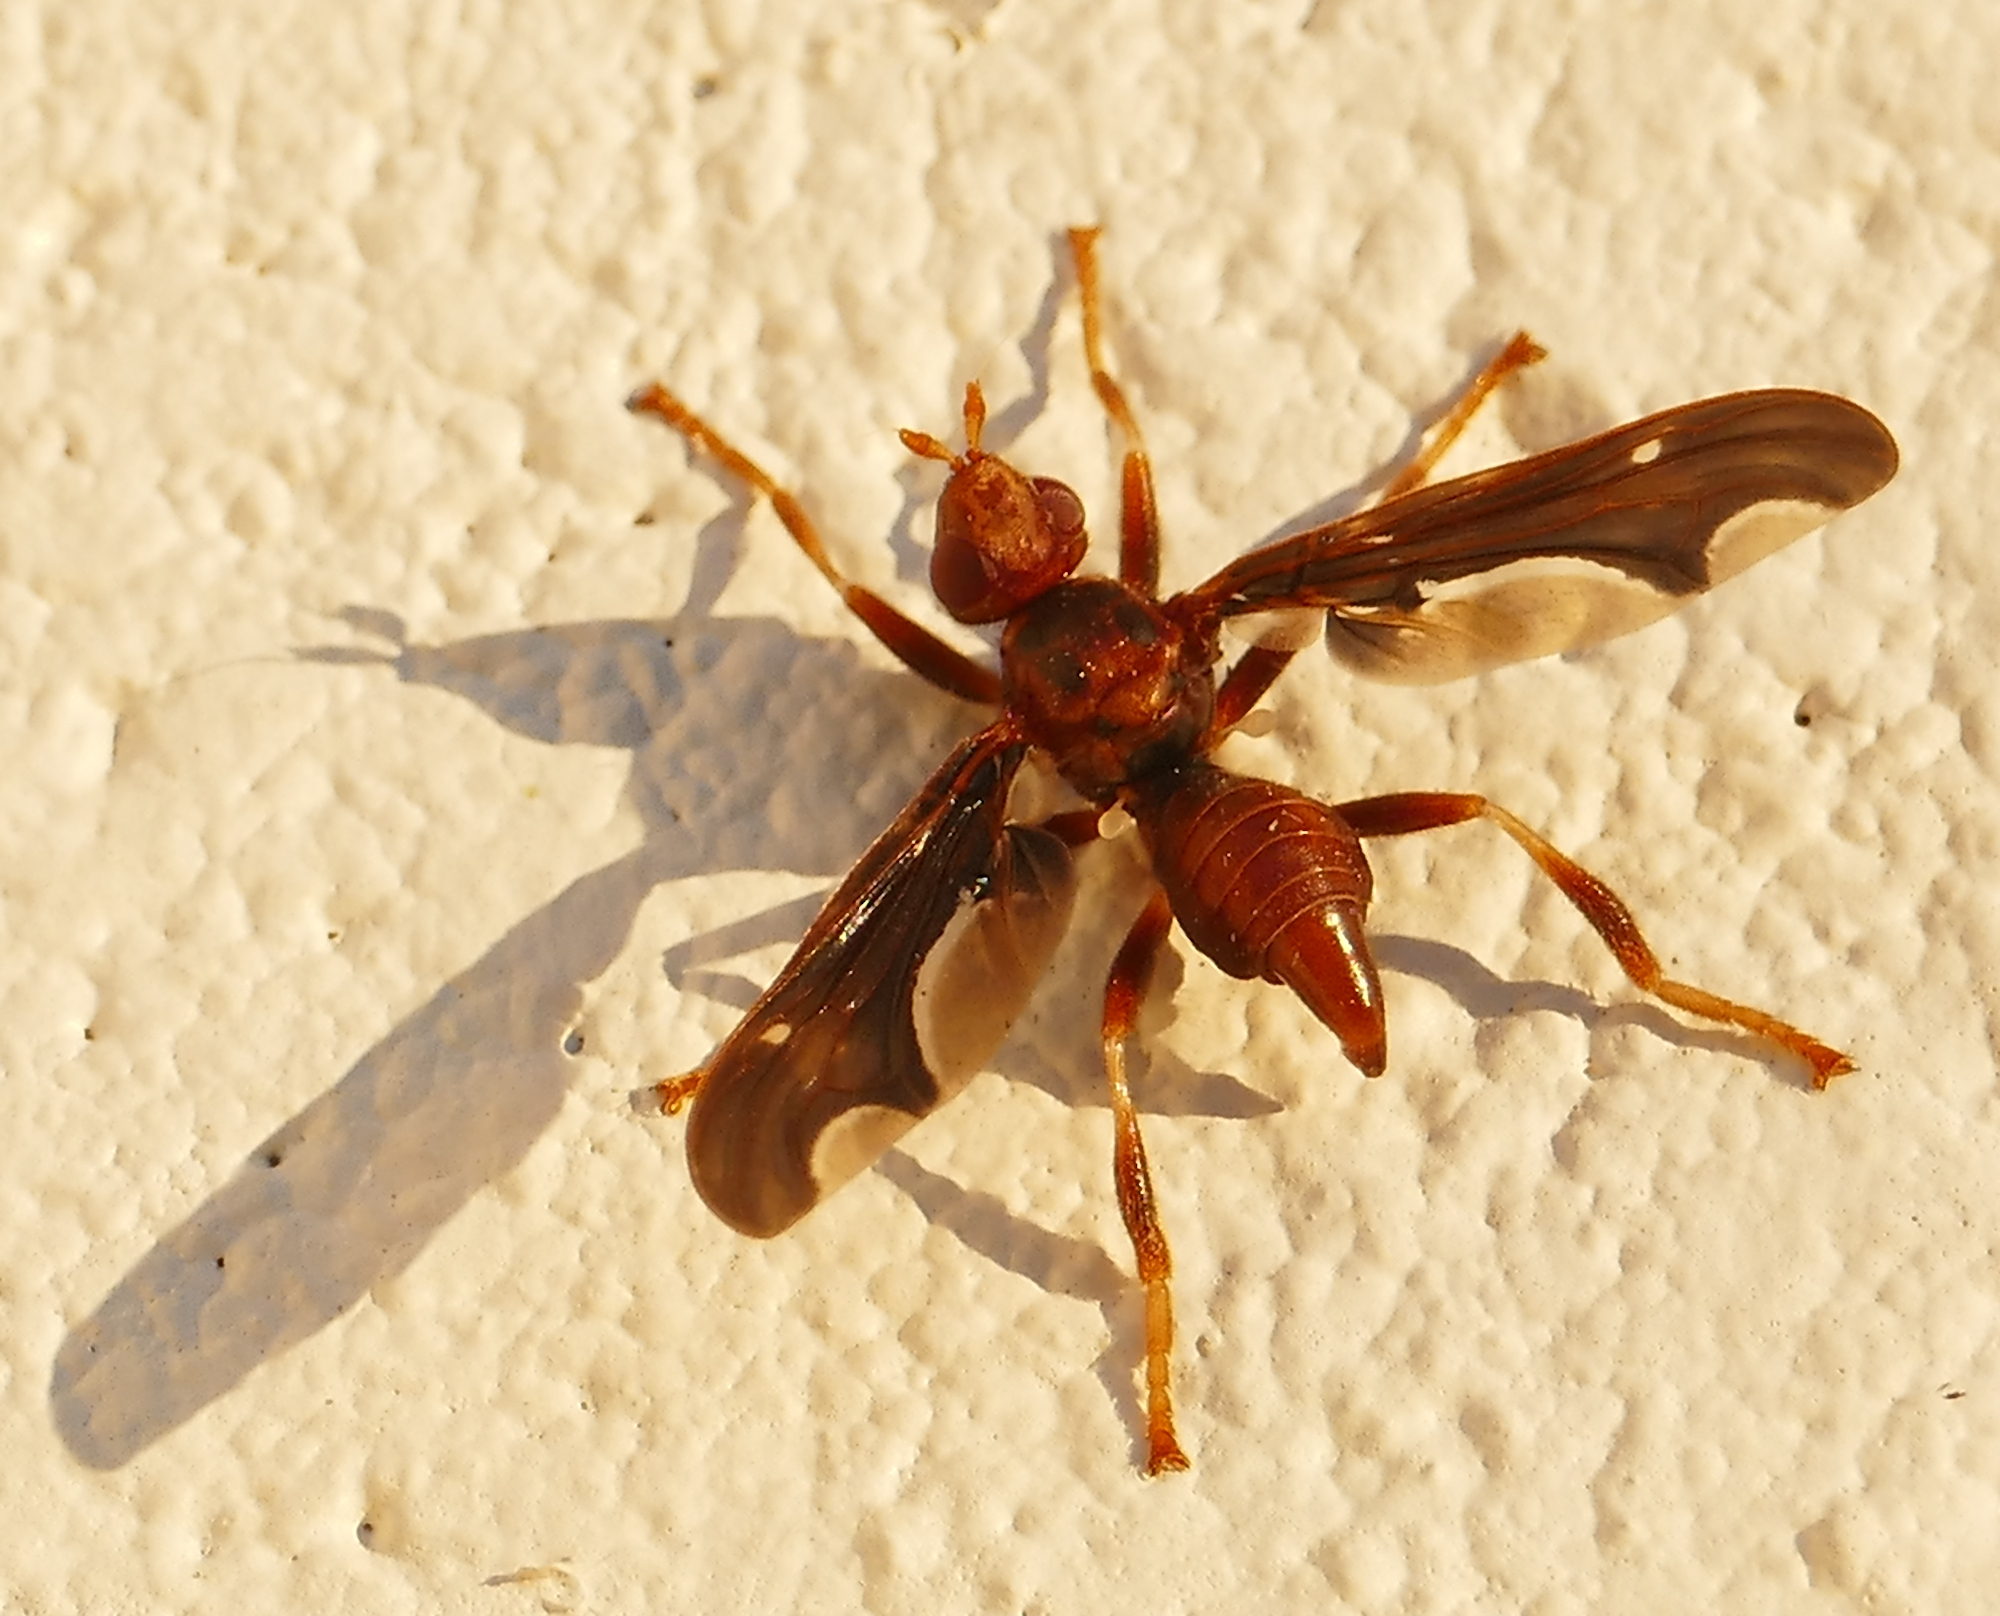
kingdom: Animalia
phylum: Arthropoda
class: Insecta
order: Diptera
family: Pyrgotidae
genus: Pyrgota
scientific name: Pyrgota undata
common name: Waved light fly
